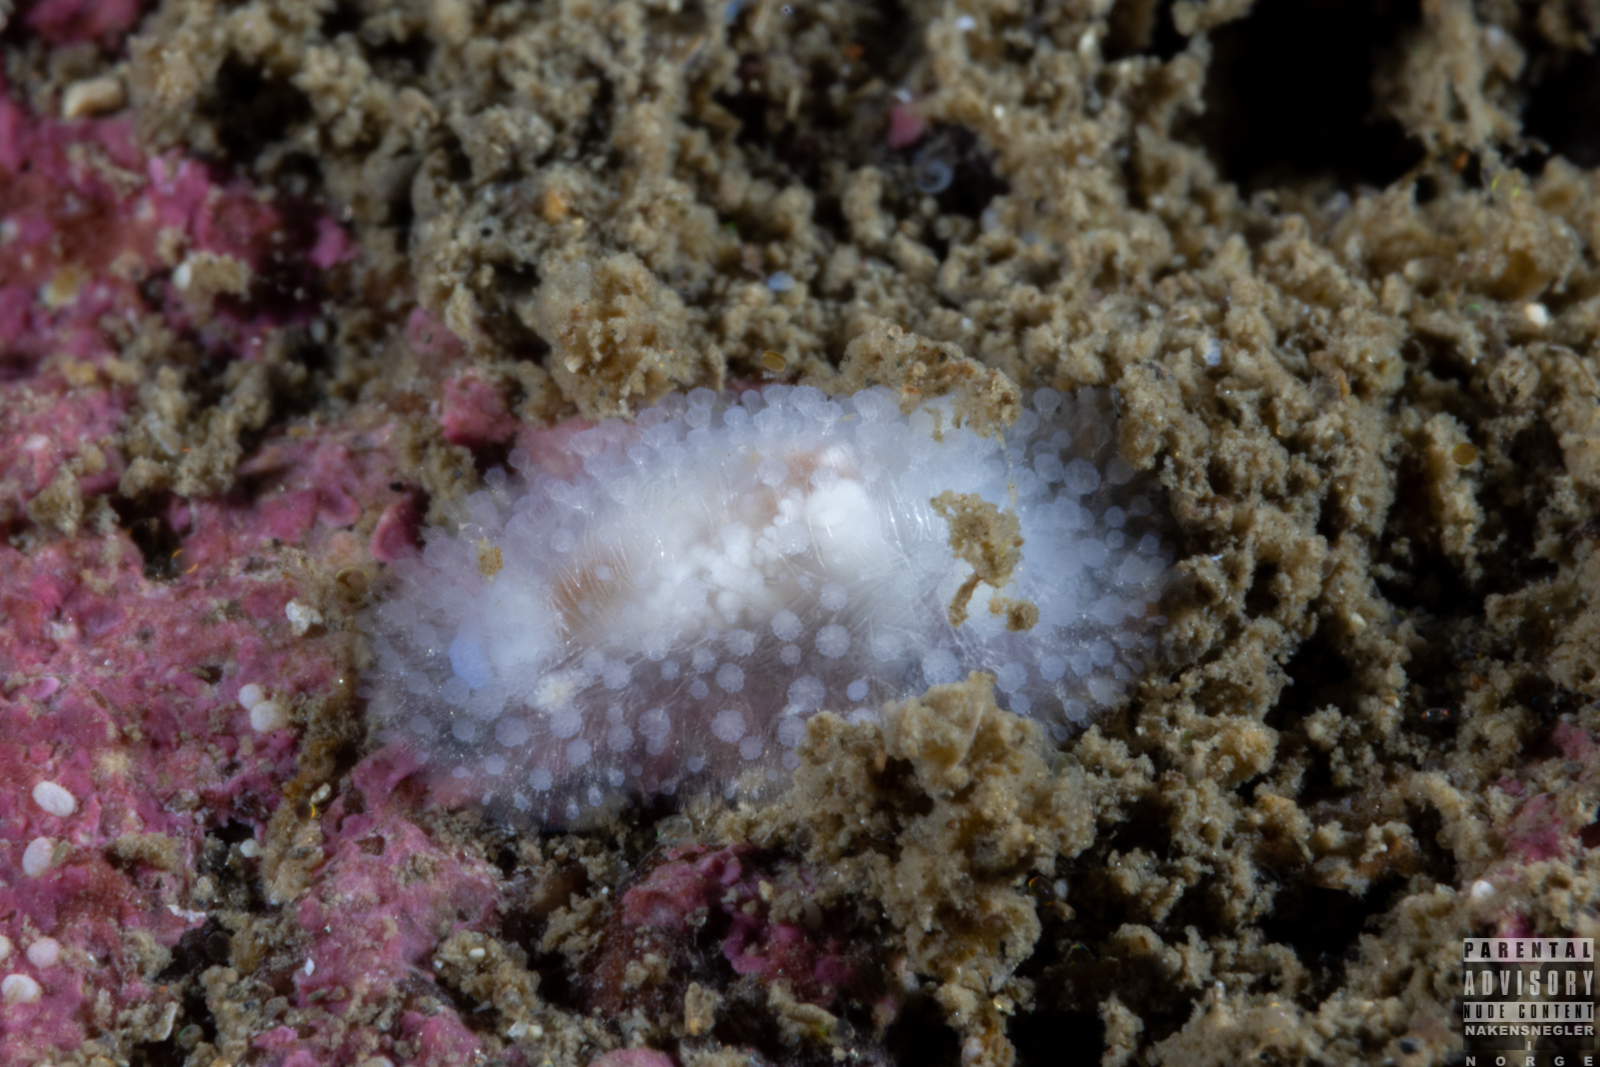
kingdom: Animalia
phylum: Mollusca
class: Gastropoda
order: Nudibranchia
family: Onchidorididae
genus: Onchidoris
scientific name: Onchidoris muricata
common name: Rough doris
